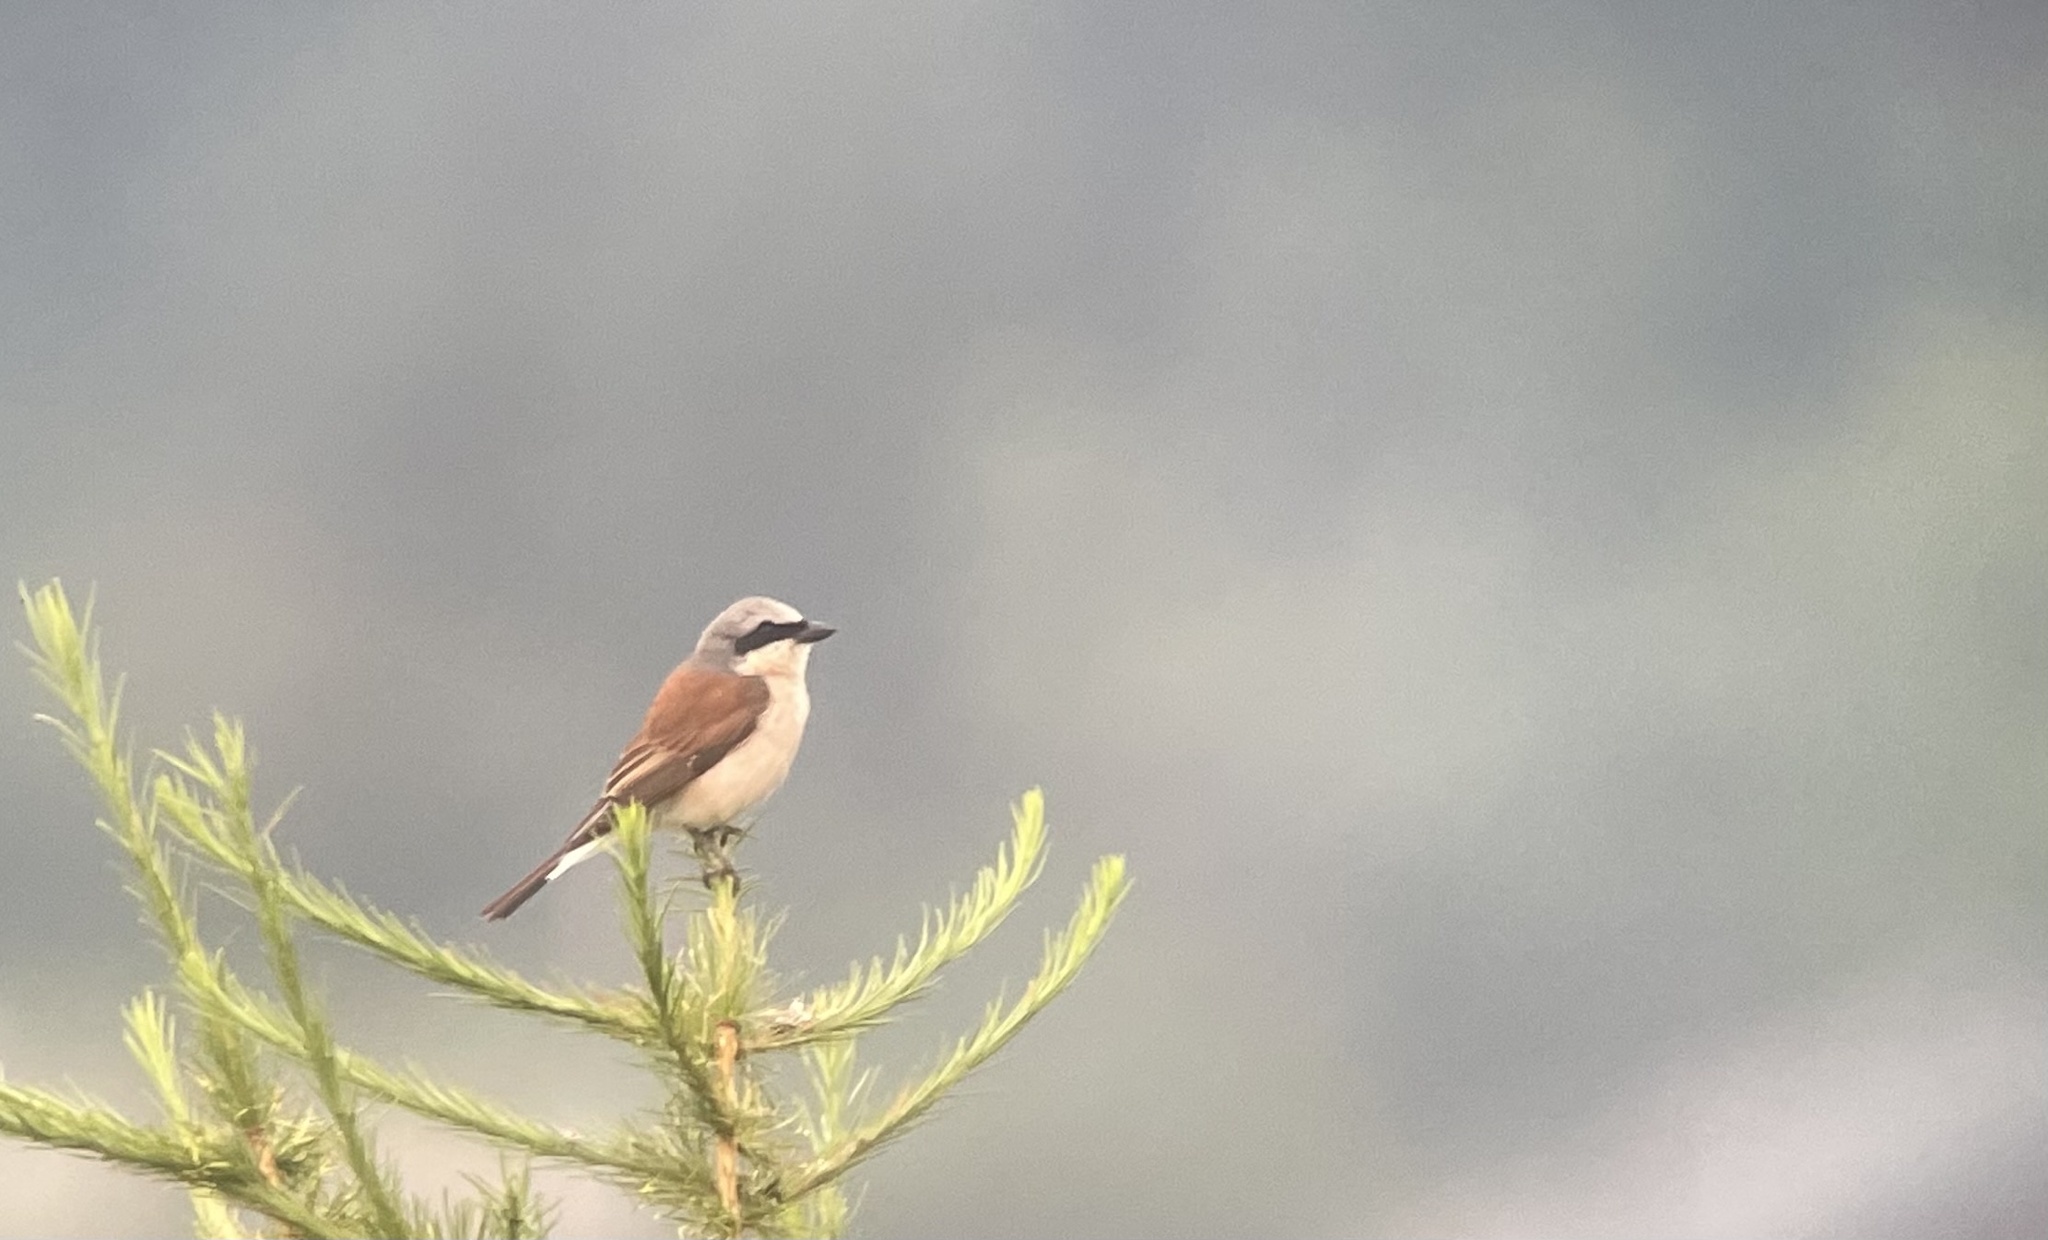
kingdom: Animalia
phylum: Chordata
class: Aves
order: Passeriformes
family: Laniidae
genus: Lanius
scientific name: Lanius collurio
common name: Red-backed shrike
